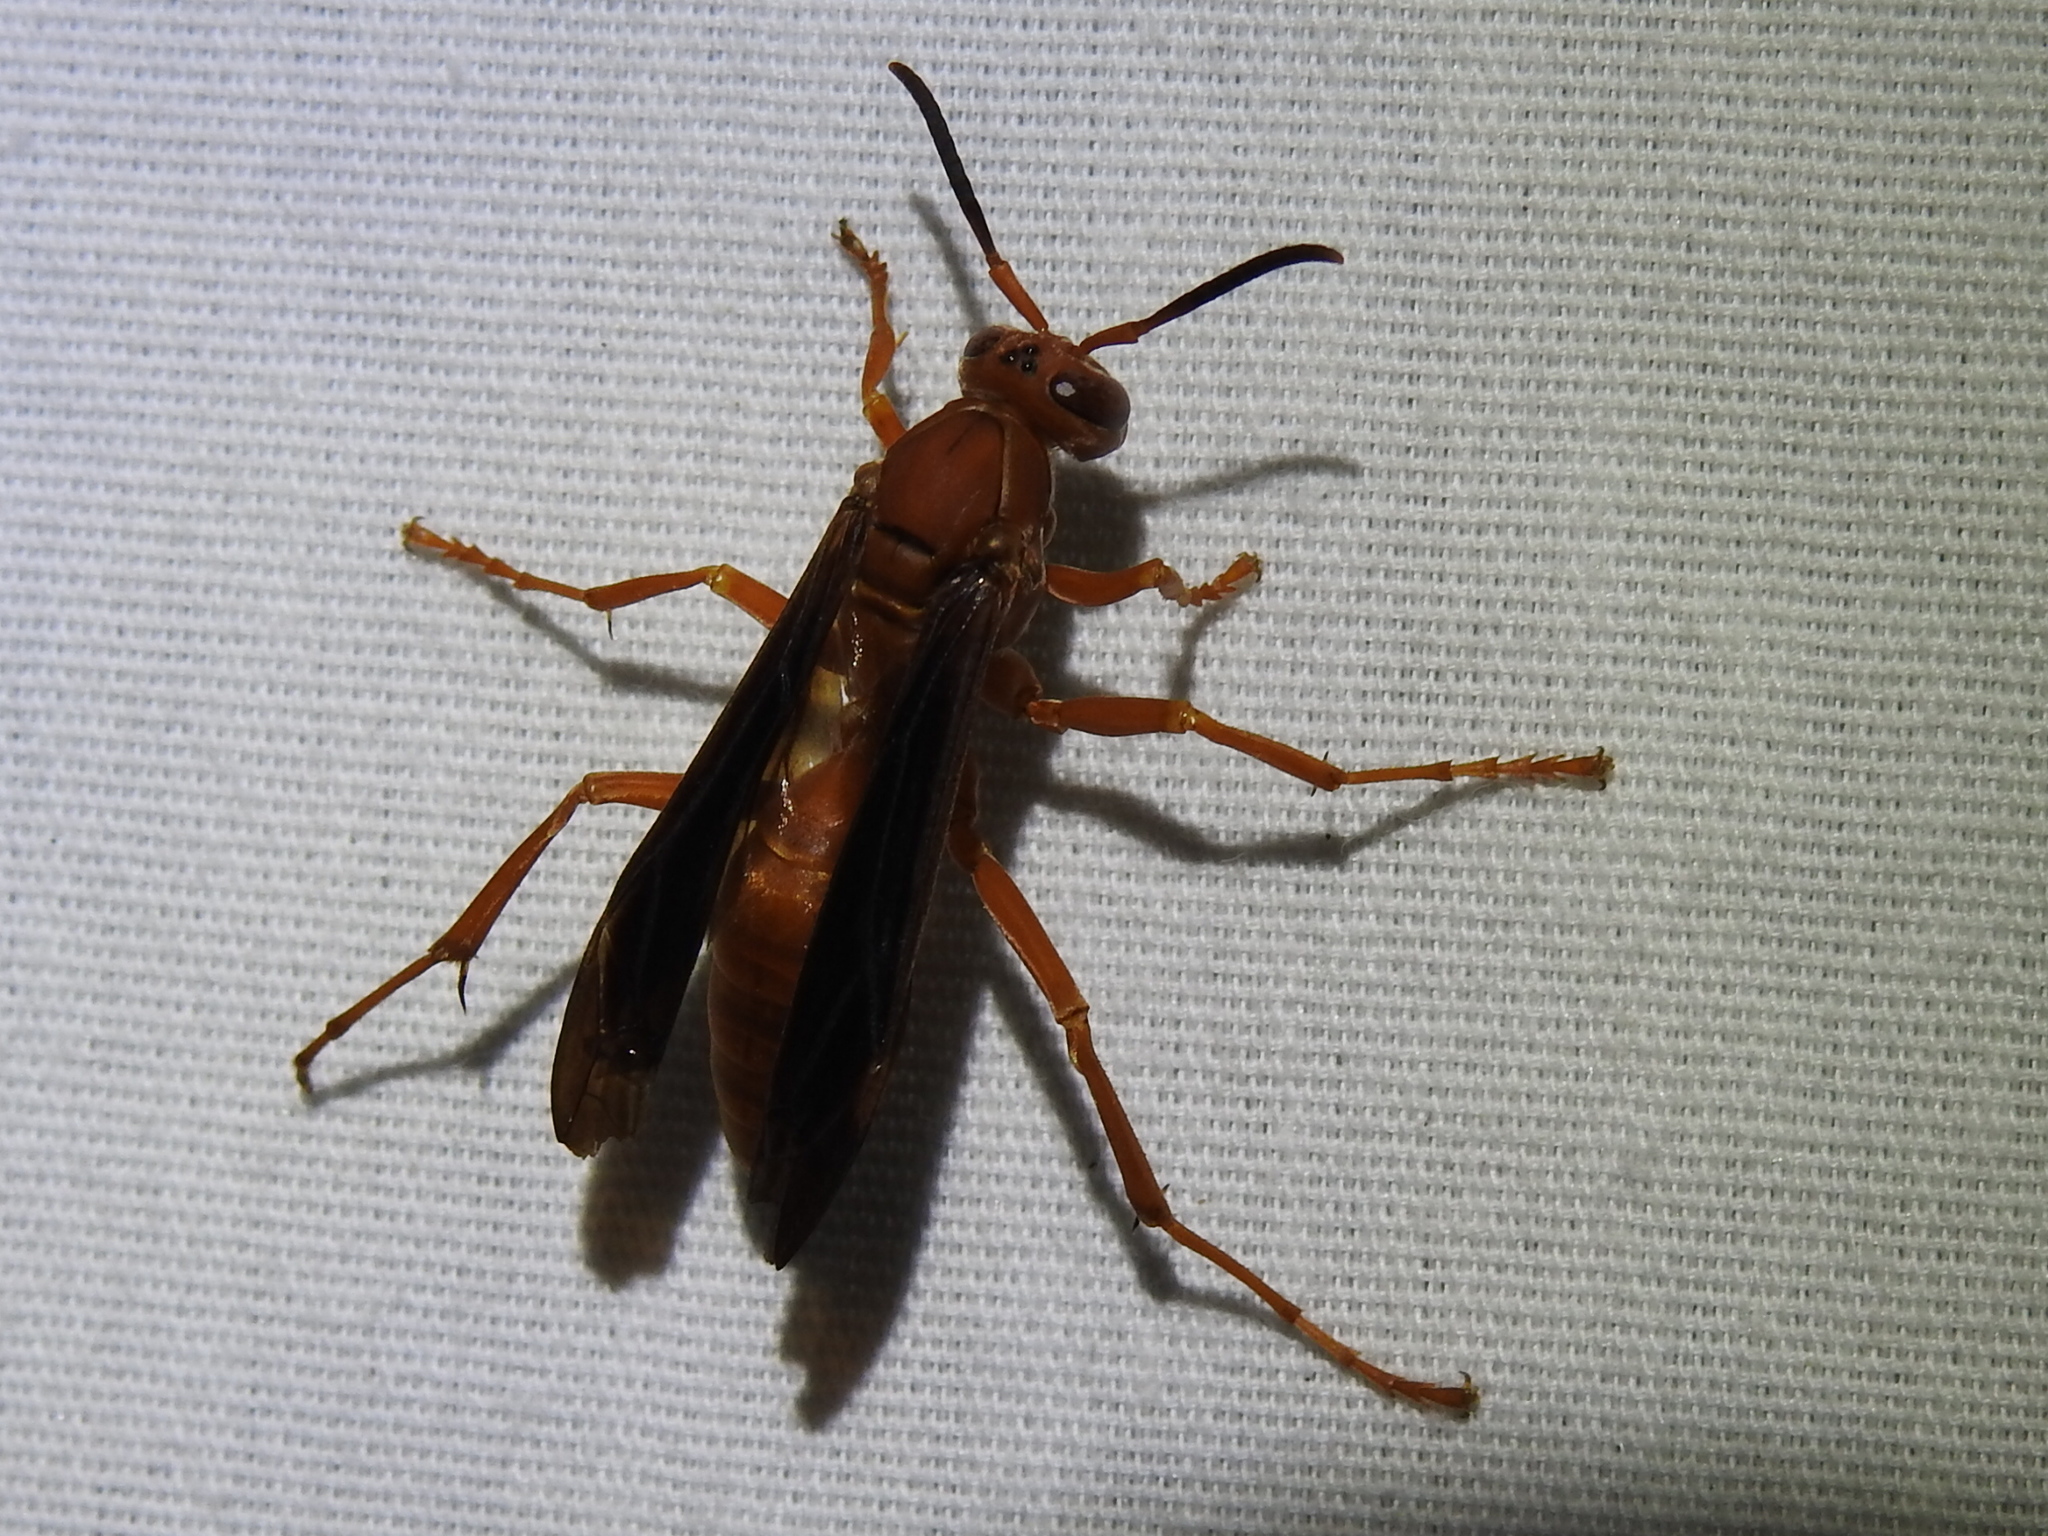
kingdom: Animalia
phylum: Arthropoda
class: Insecta
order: Hymenoptera
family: Eumenidae
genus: Polistes
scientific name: Polistes
